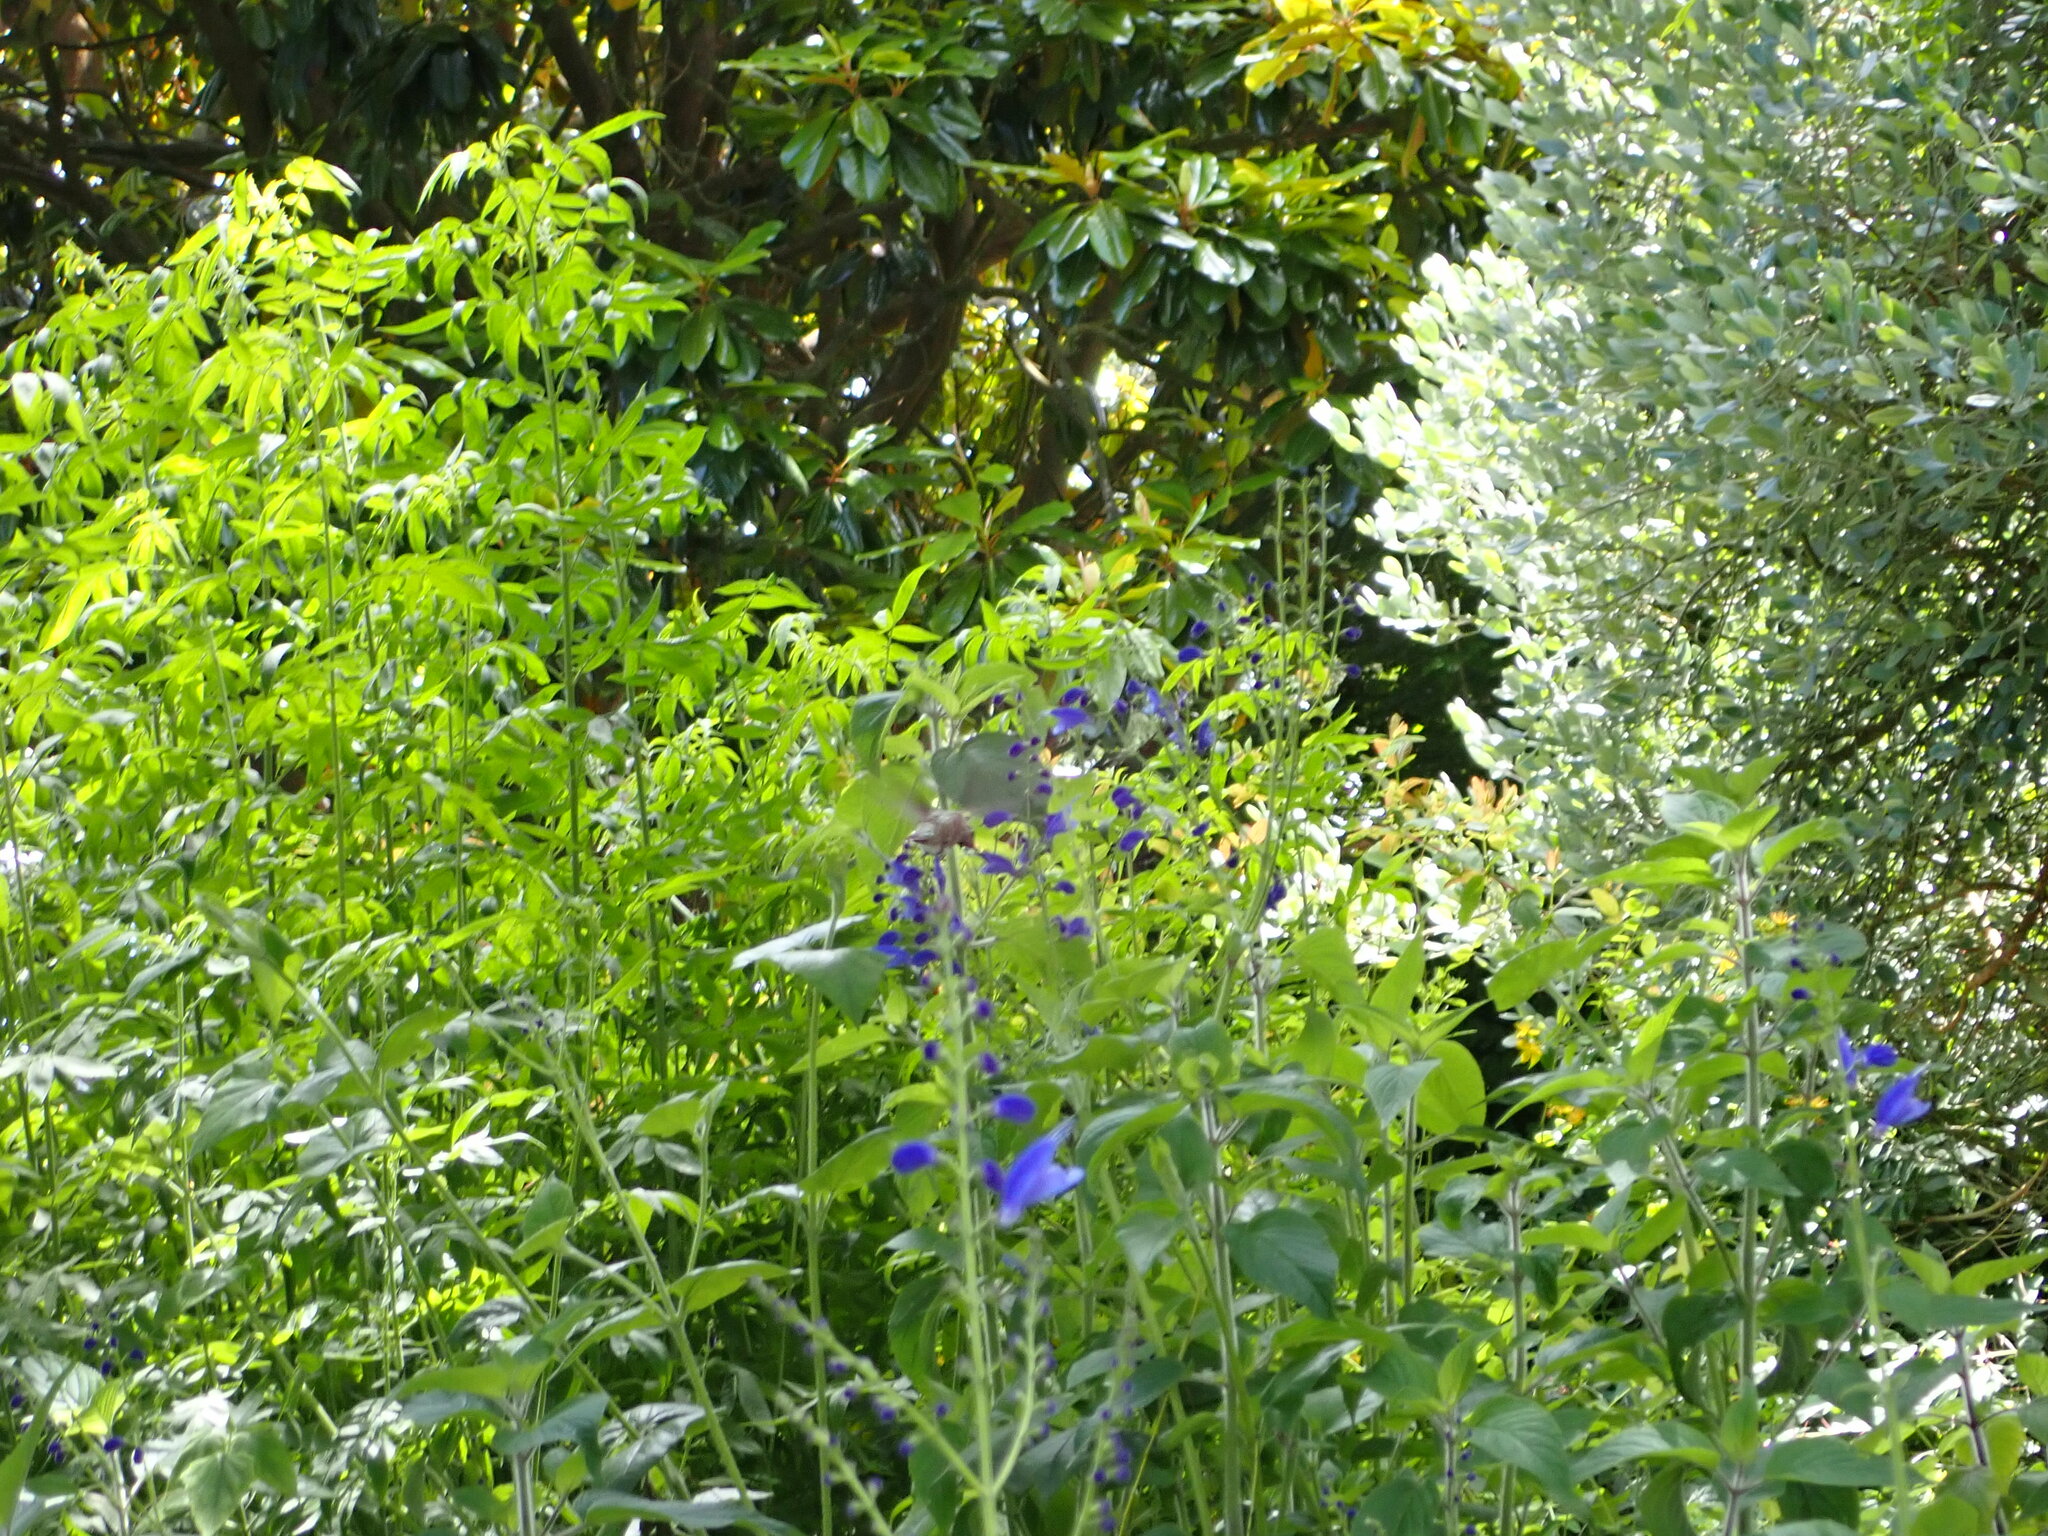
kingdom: Animalia
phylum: Chordata
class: Aves
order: Apodiformes
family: Trochilidae
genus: Calypte
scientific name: Calypte anna
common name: Anna's hummingbird
